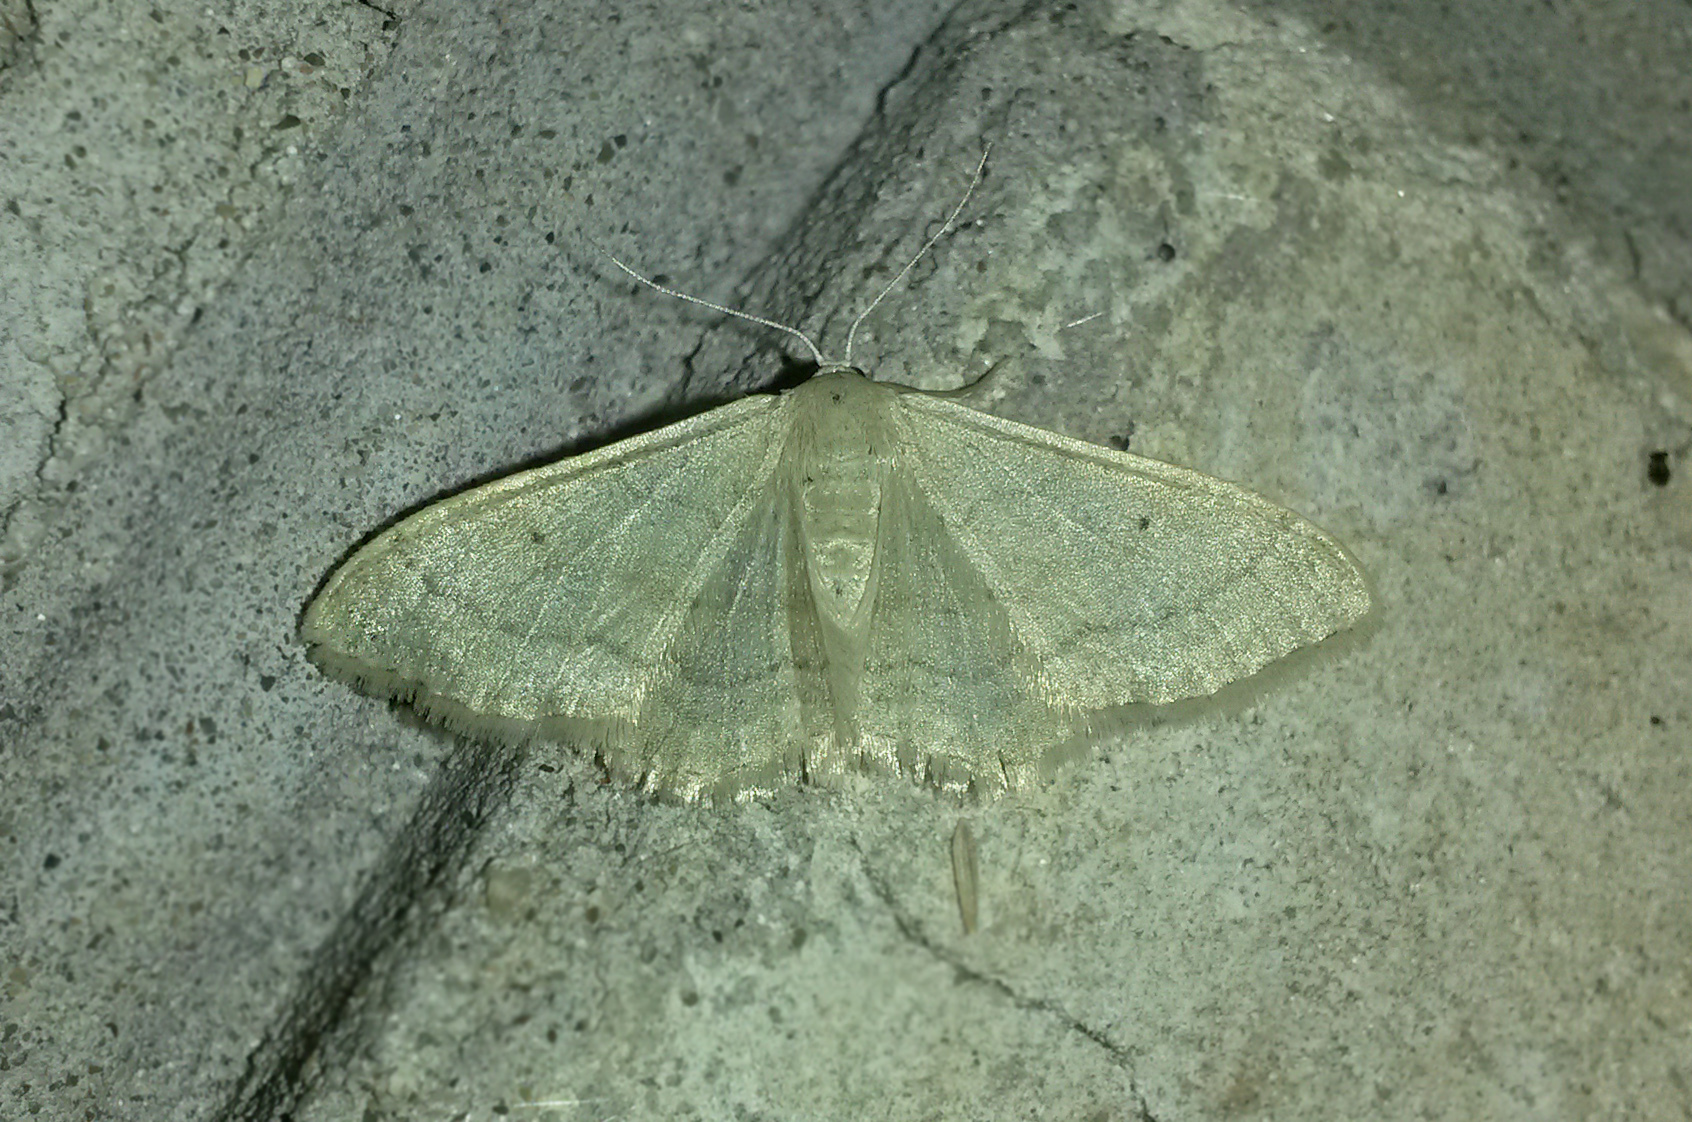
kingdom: Animalia
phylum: Arthropoda
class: Insecta
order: Lepidoptera
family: Geometridae
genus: Idaea
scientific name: Idaea straminata
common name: Plain wave
